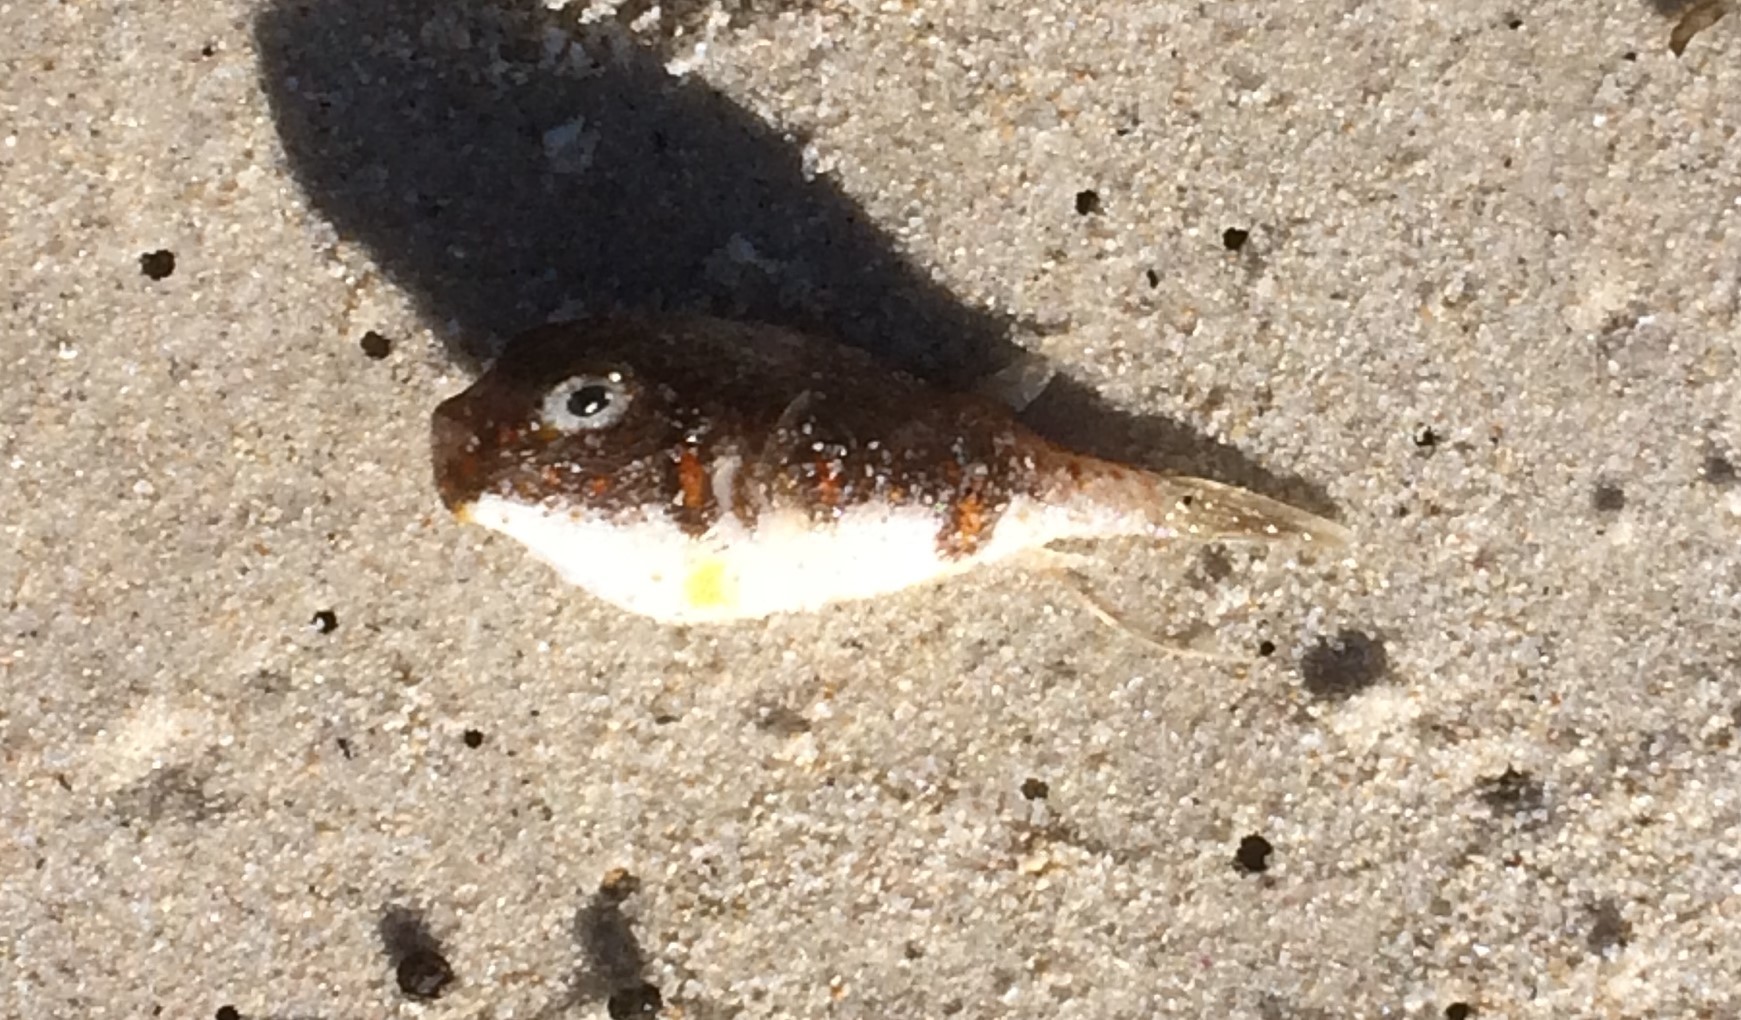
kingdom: Animalia
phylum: Chordata
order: Tetraodontiformes
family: Tetraodontidae
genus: Polyspina
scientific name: Polyspina piosae
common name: Orange-barred pufferfish
